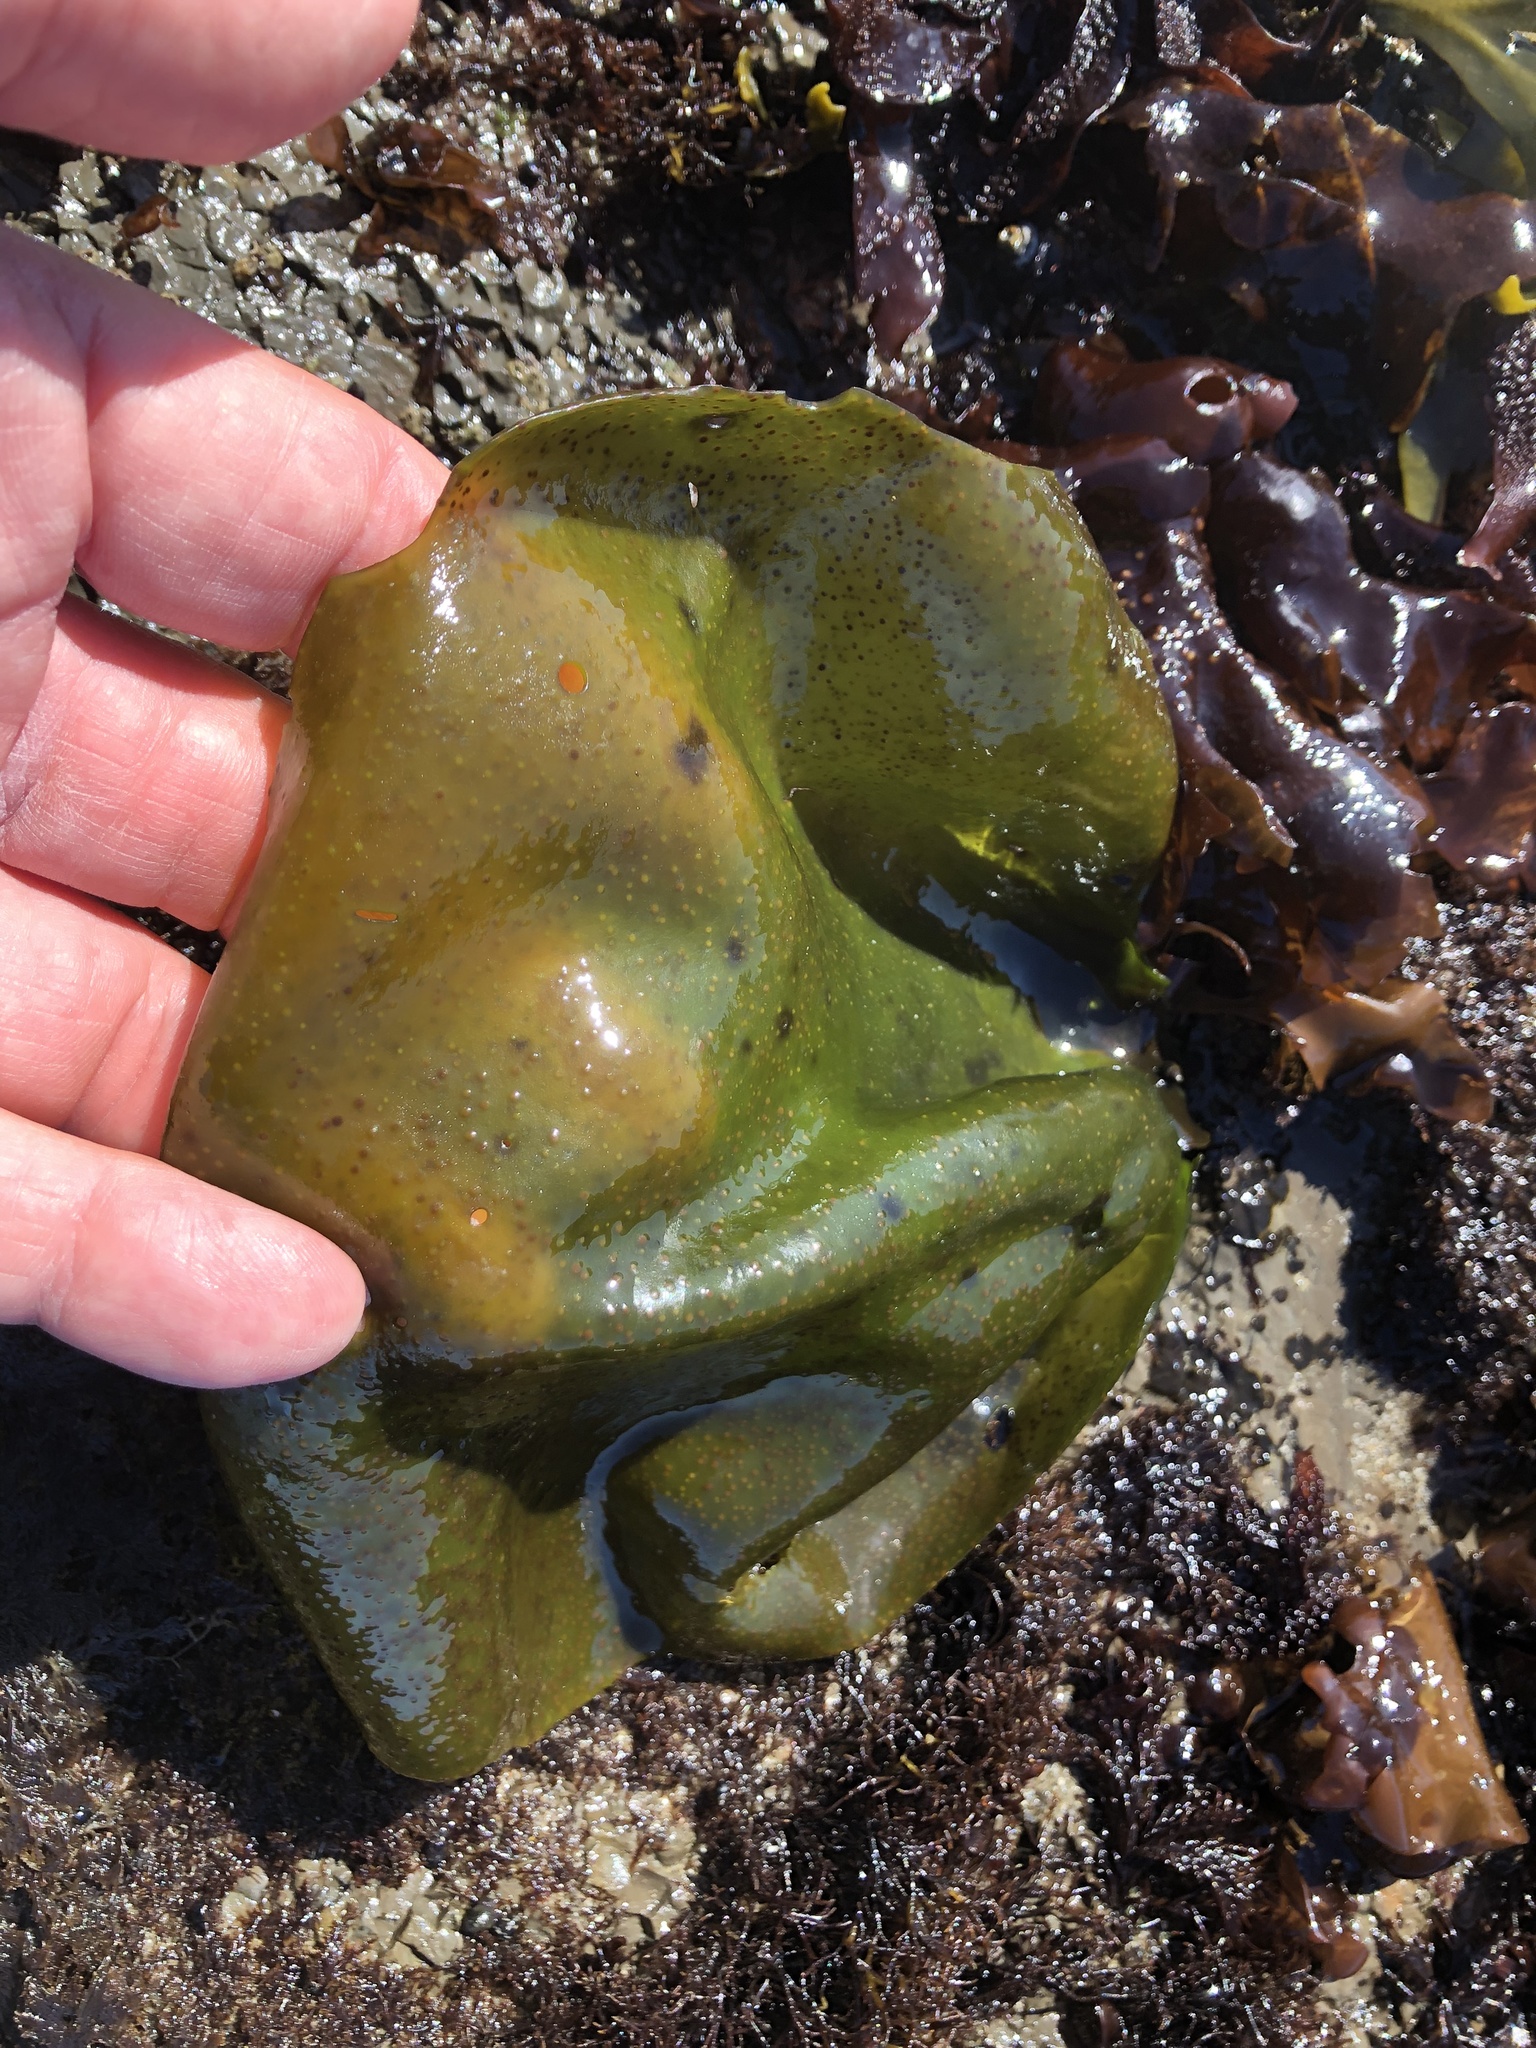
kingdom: Plantae
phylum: Rhodophyta
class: Florideophyceae
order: Gigartinales
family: Gigartinaceae
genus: Mazzaella
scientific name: Mazzaella flaccida
